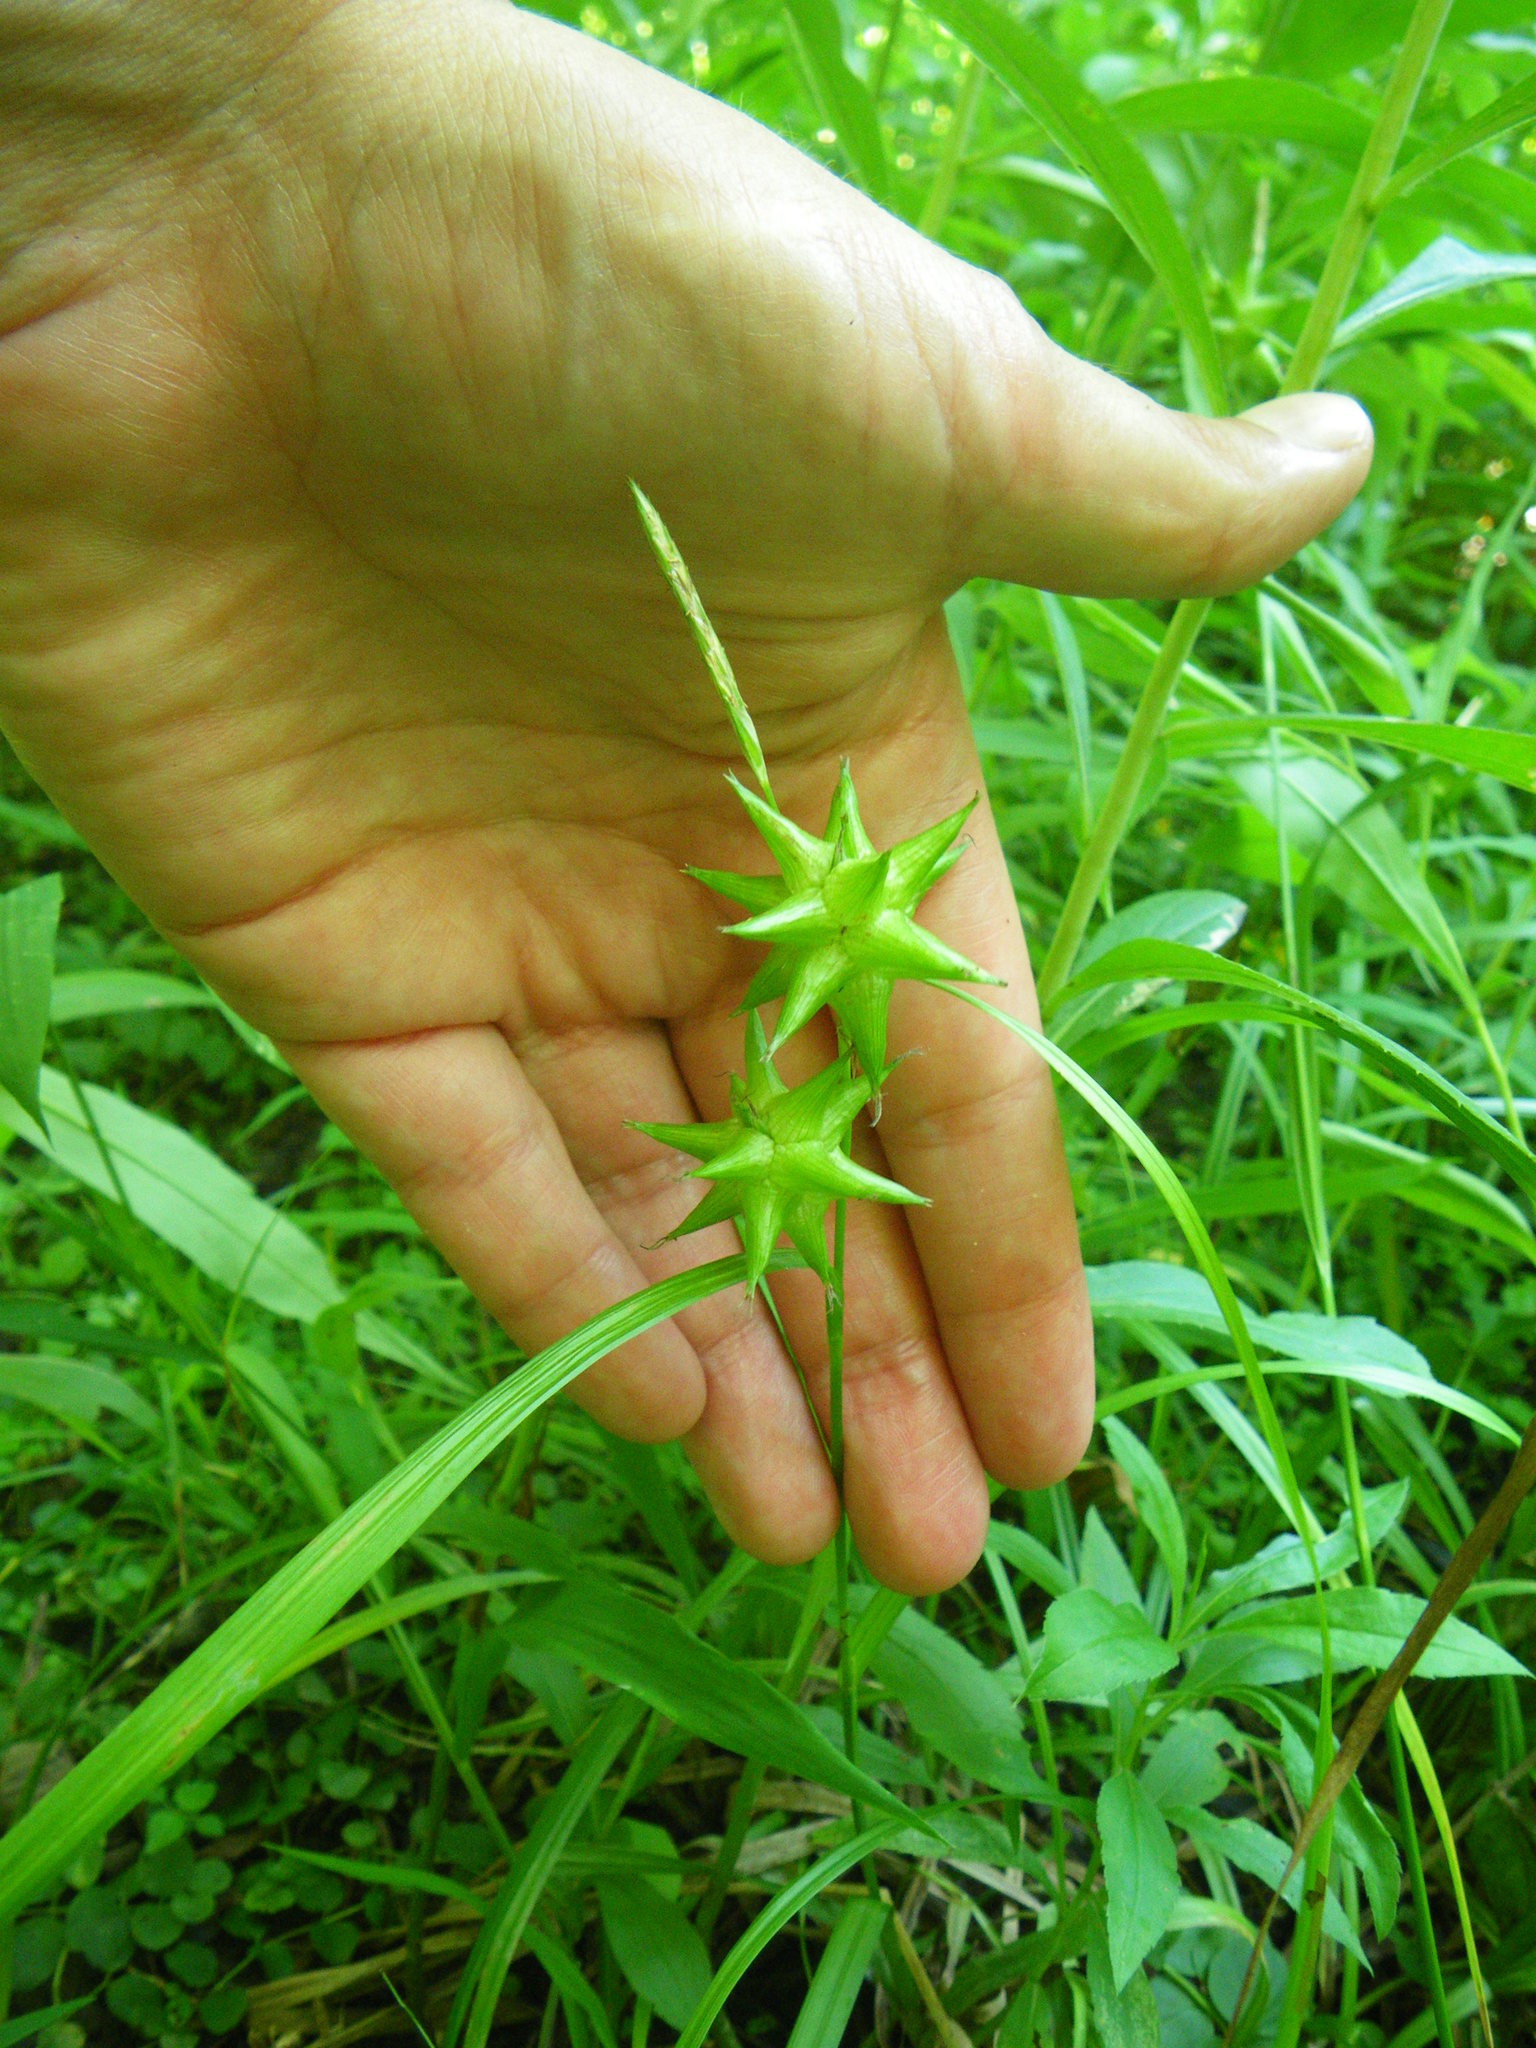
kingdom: Plantae
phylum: Tracheophyta
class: Liliopsida
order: Poales
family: Cyperaceae
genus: Carex
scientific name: Carex grayi
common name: Asa gray's sedge
